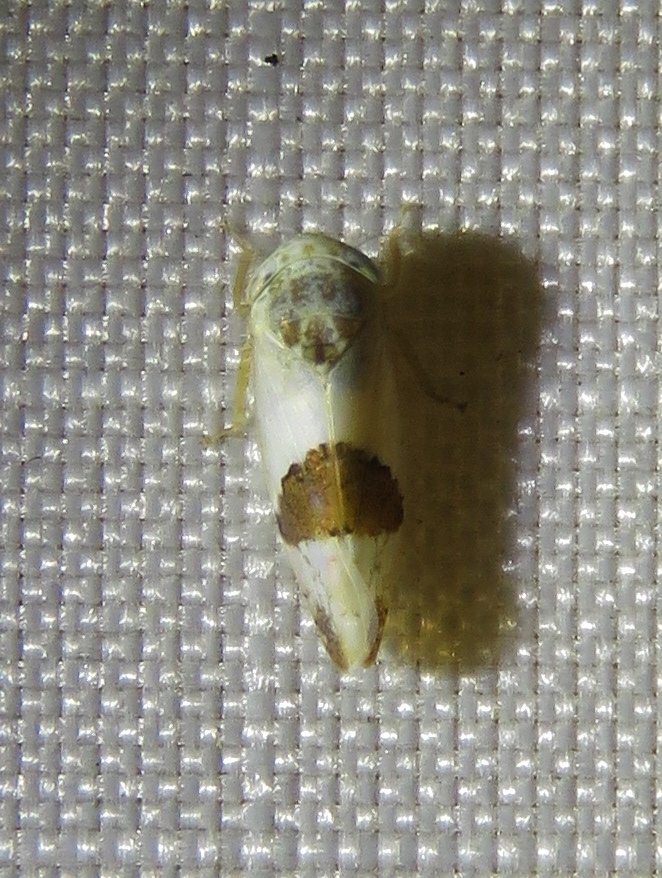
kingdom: Animalia
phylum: Arthropoda
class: Insecta
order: Hemiptera
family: Cicadellidae
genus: Norvellina
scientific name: Norvellina seminuda
